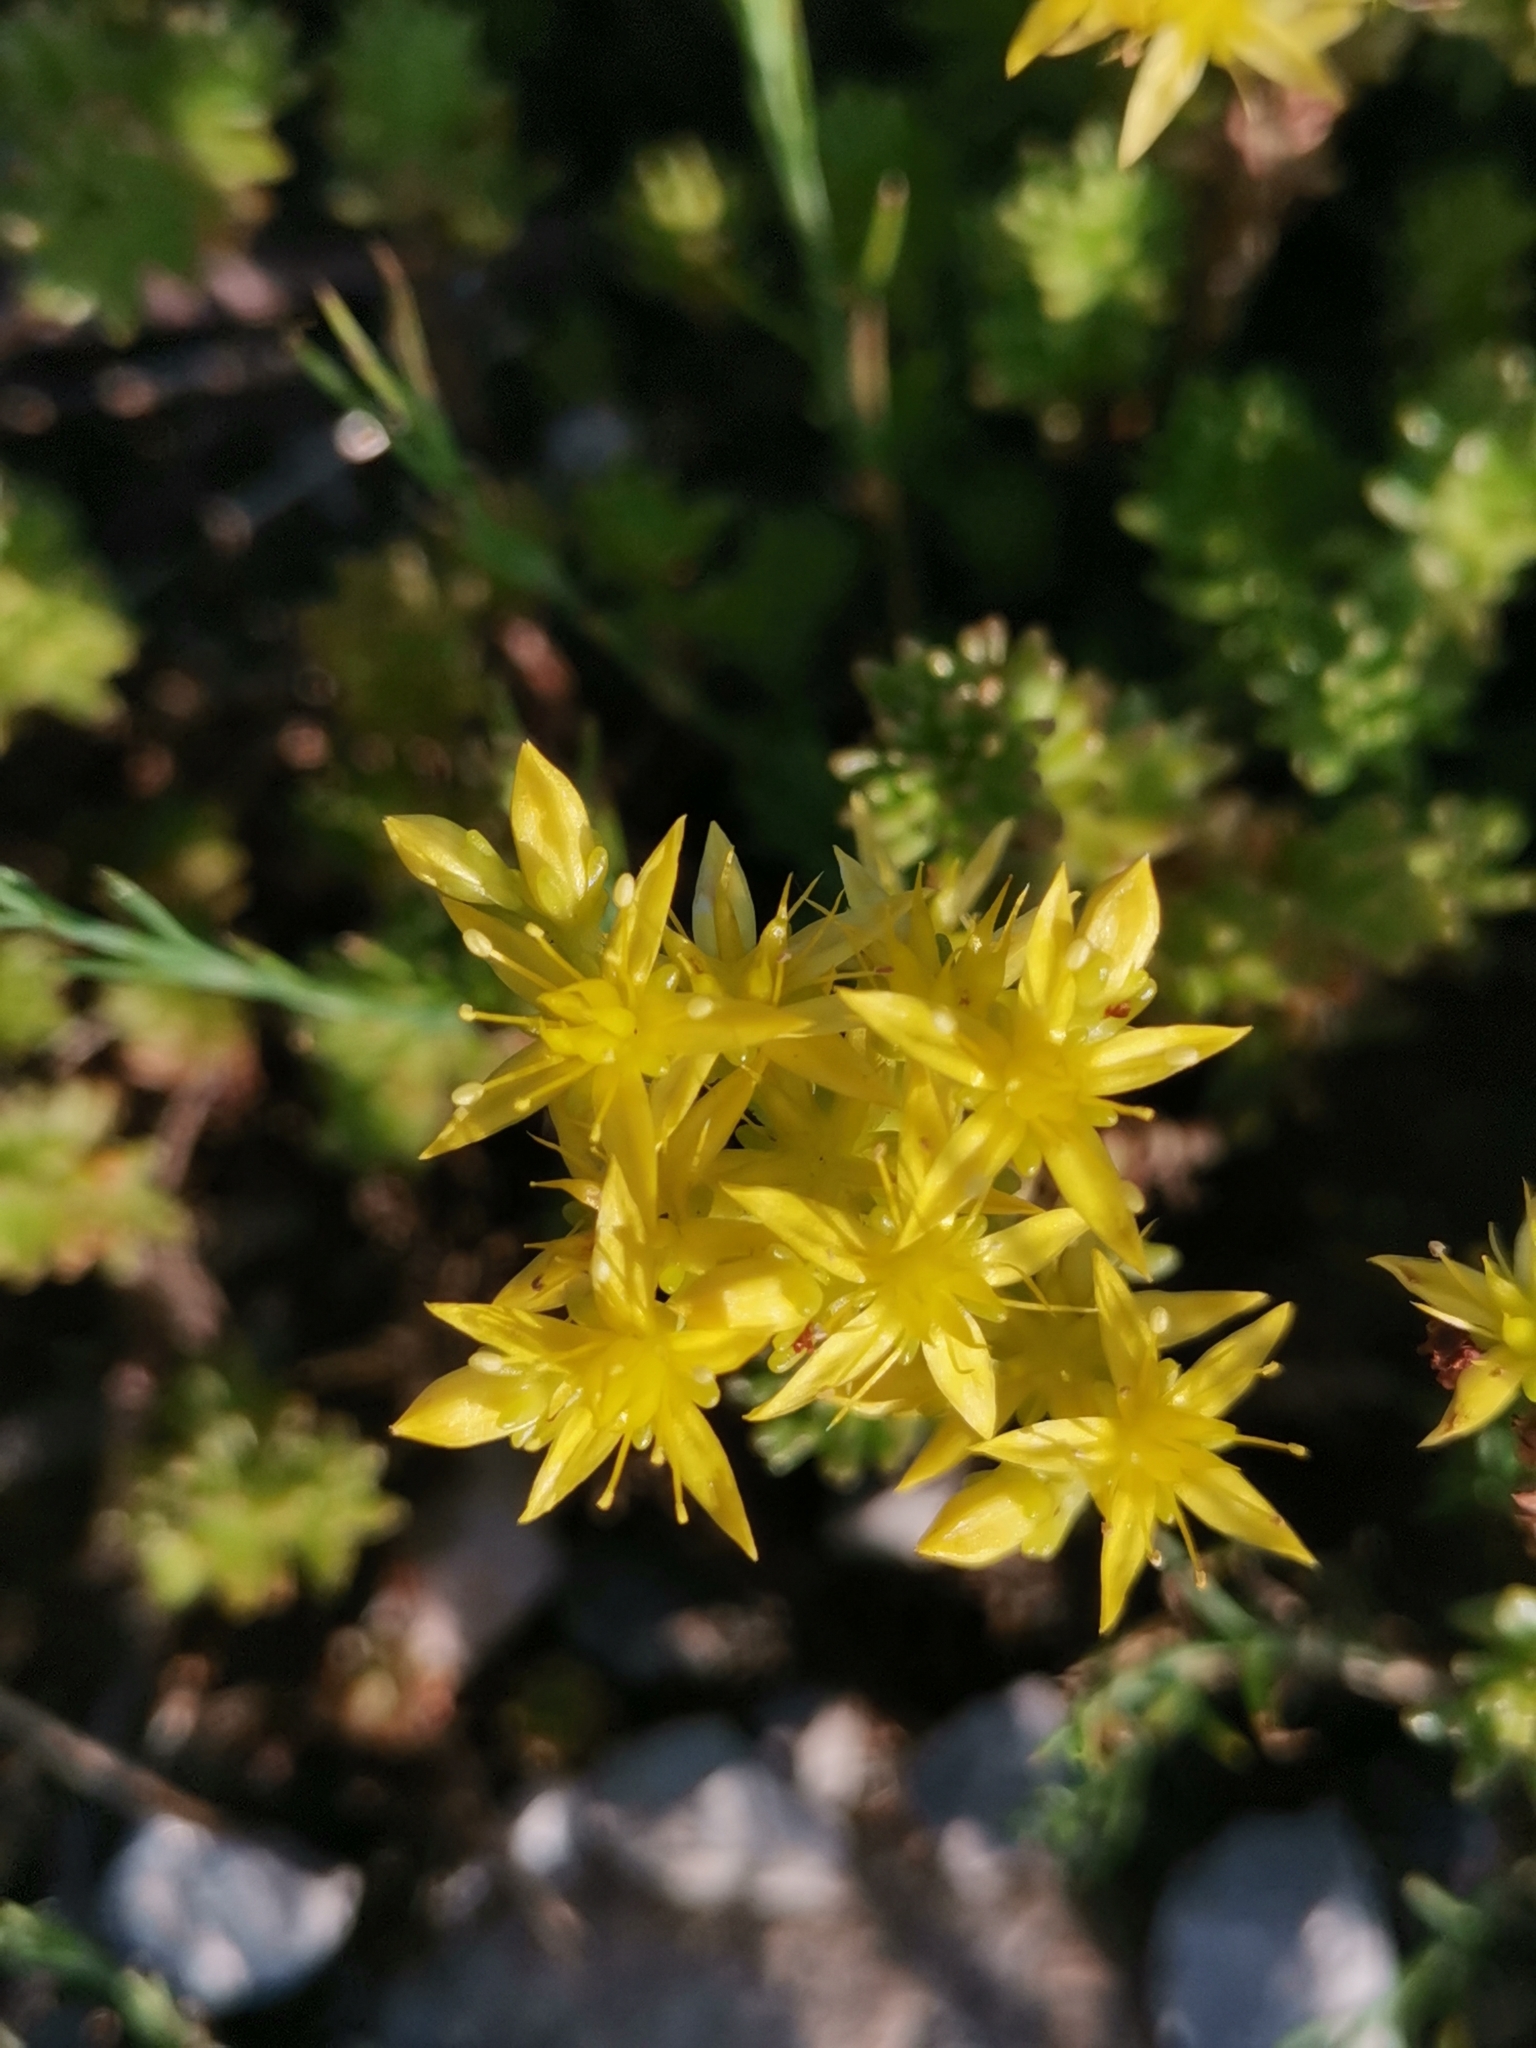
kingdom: Plantae
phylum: Tracheophyta
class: Magnoliopsida
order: Saxifragales
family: Crassulaceae
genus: Sedum
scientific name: Sedum sexangulare
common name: Tasteless stonecrop
